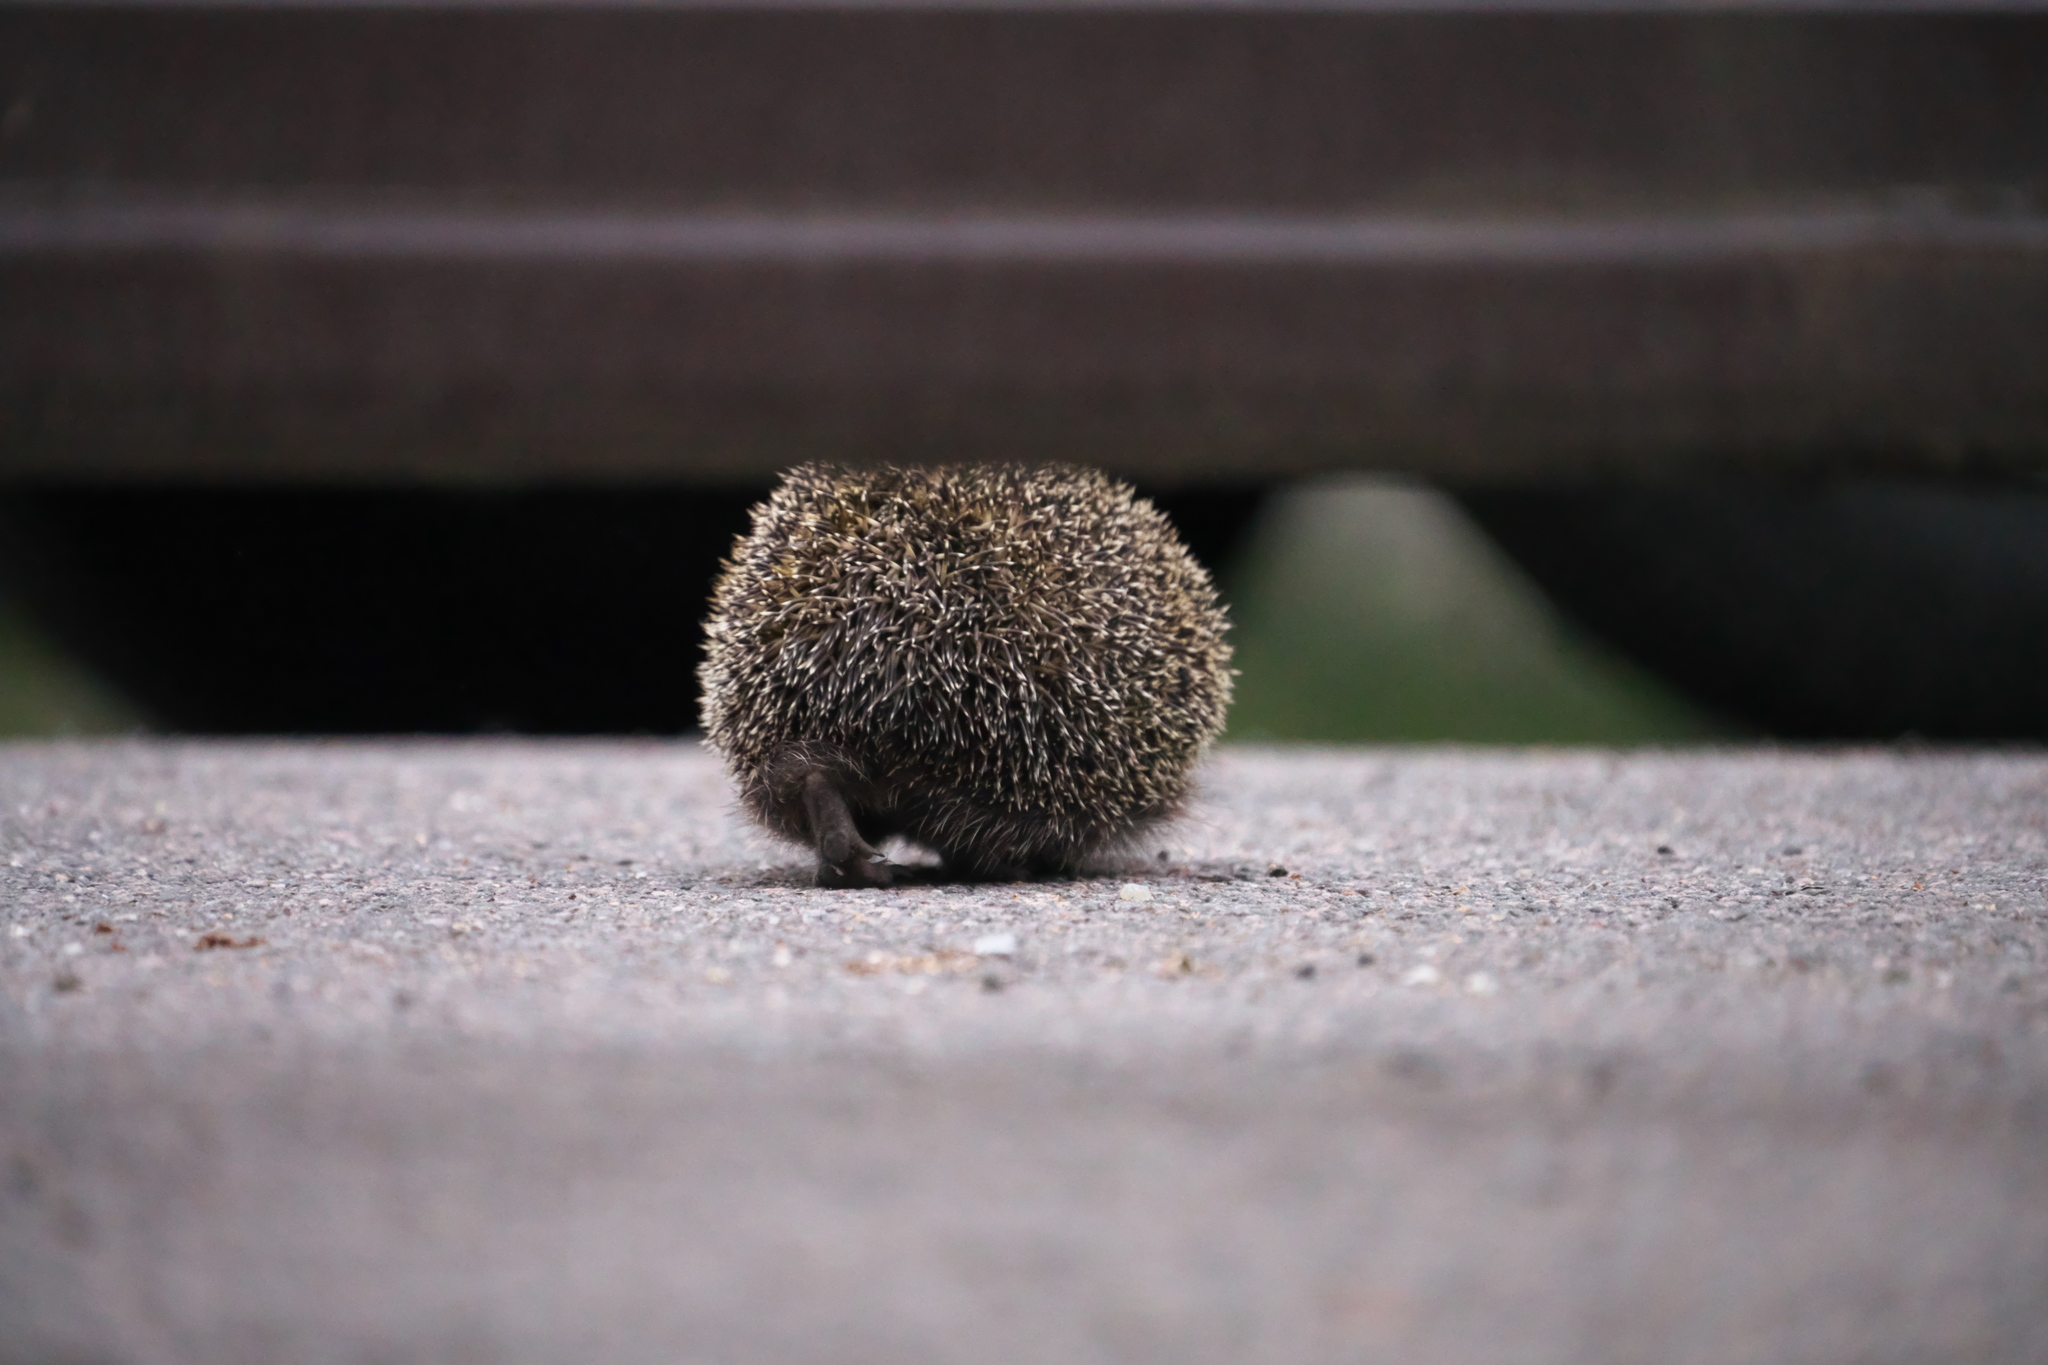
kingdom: Animalia
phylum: Chordata
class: Mammalia
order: Erinaceomorpha
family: Erinaceidae
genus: Erinaceus
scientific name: Erinaceus europaeus
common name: West european hedgehog
